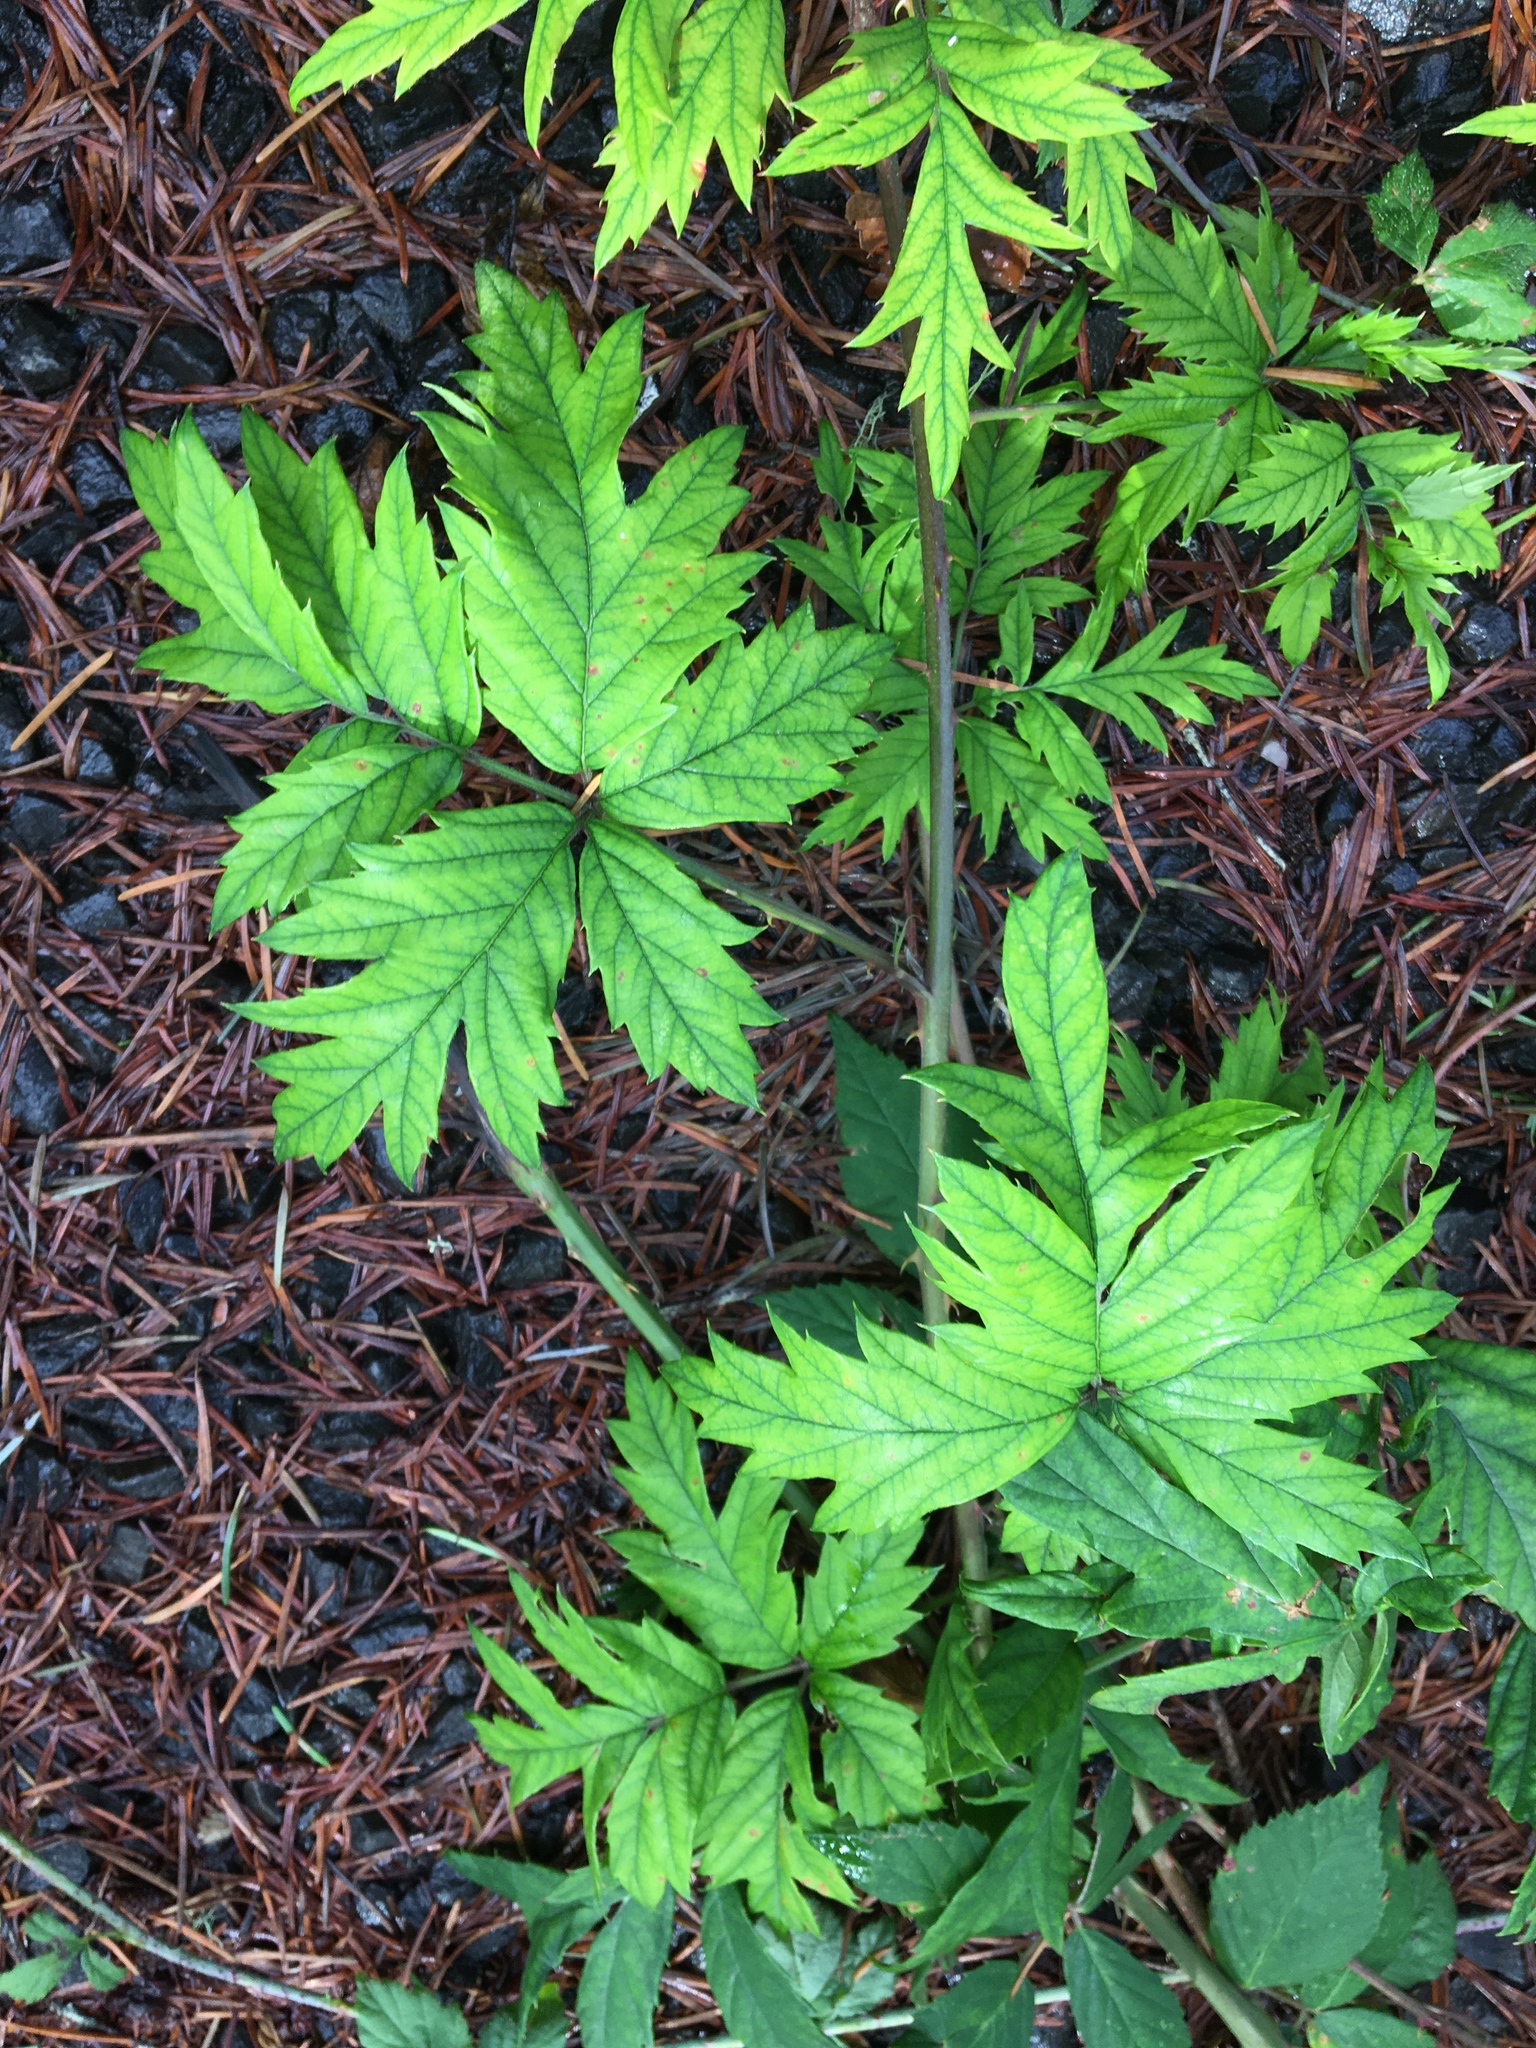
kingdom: Plantae
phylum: Tracheophyta
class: Magnoliopsida
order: Rosales
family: Rosaceae
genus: Rubus
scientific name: Rubus laciniatus
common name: Evergreen blackberry
